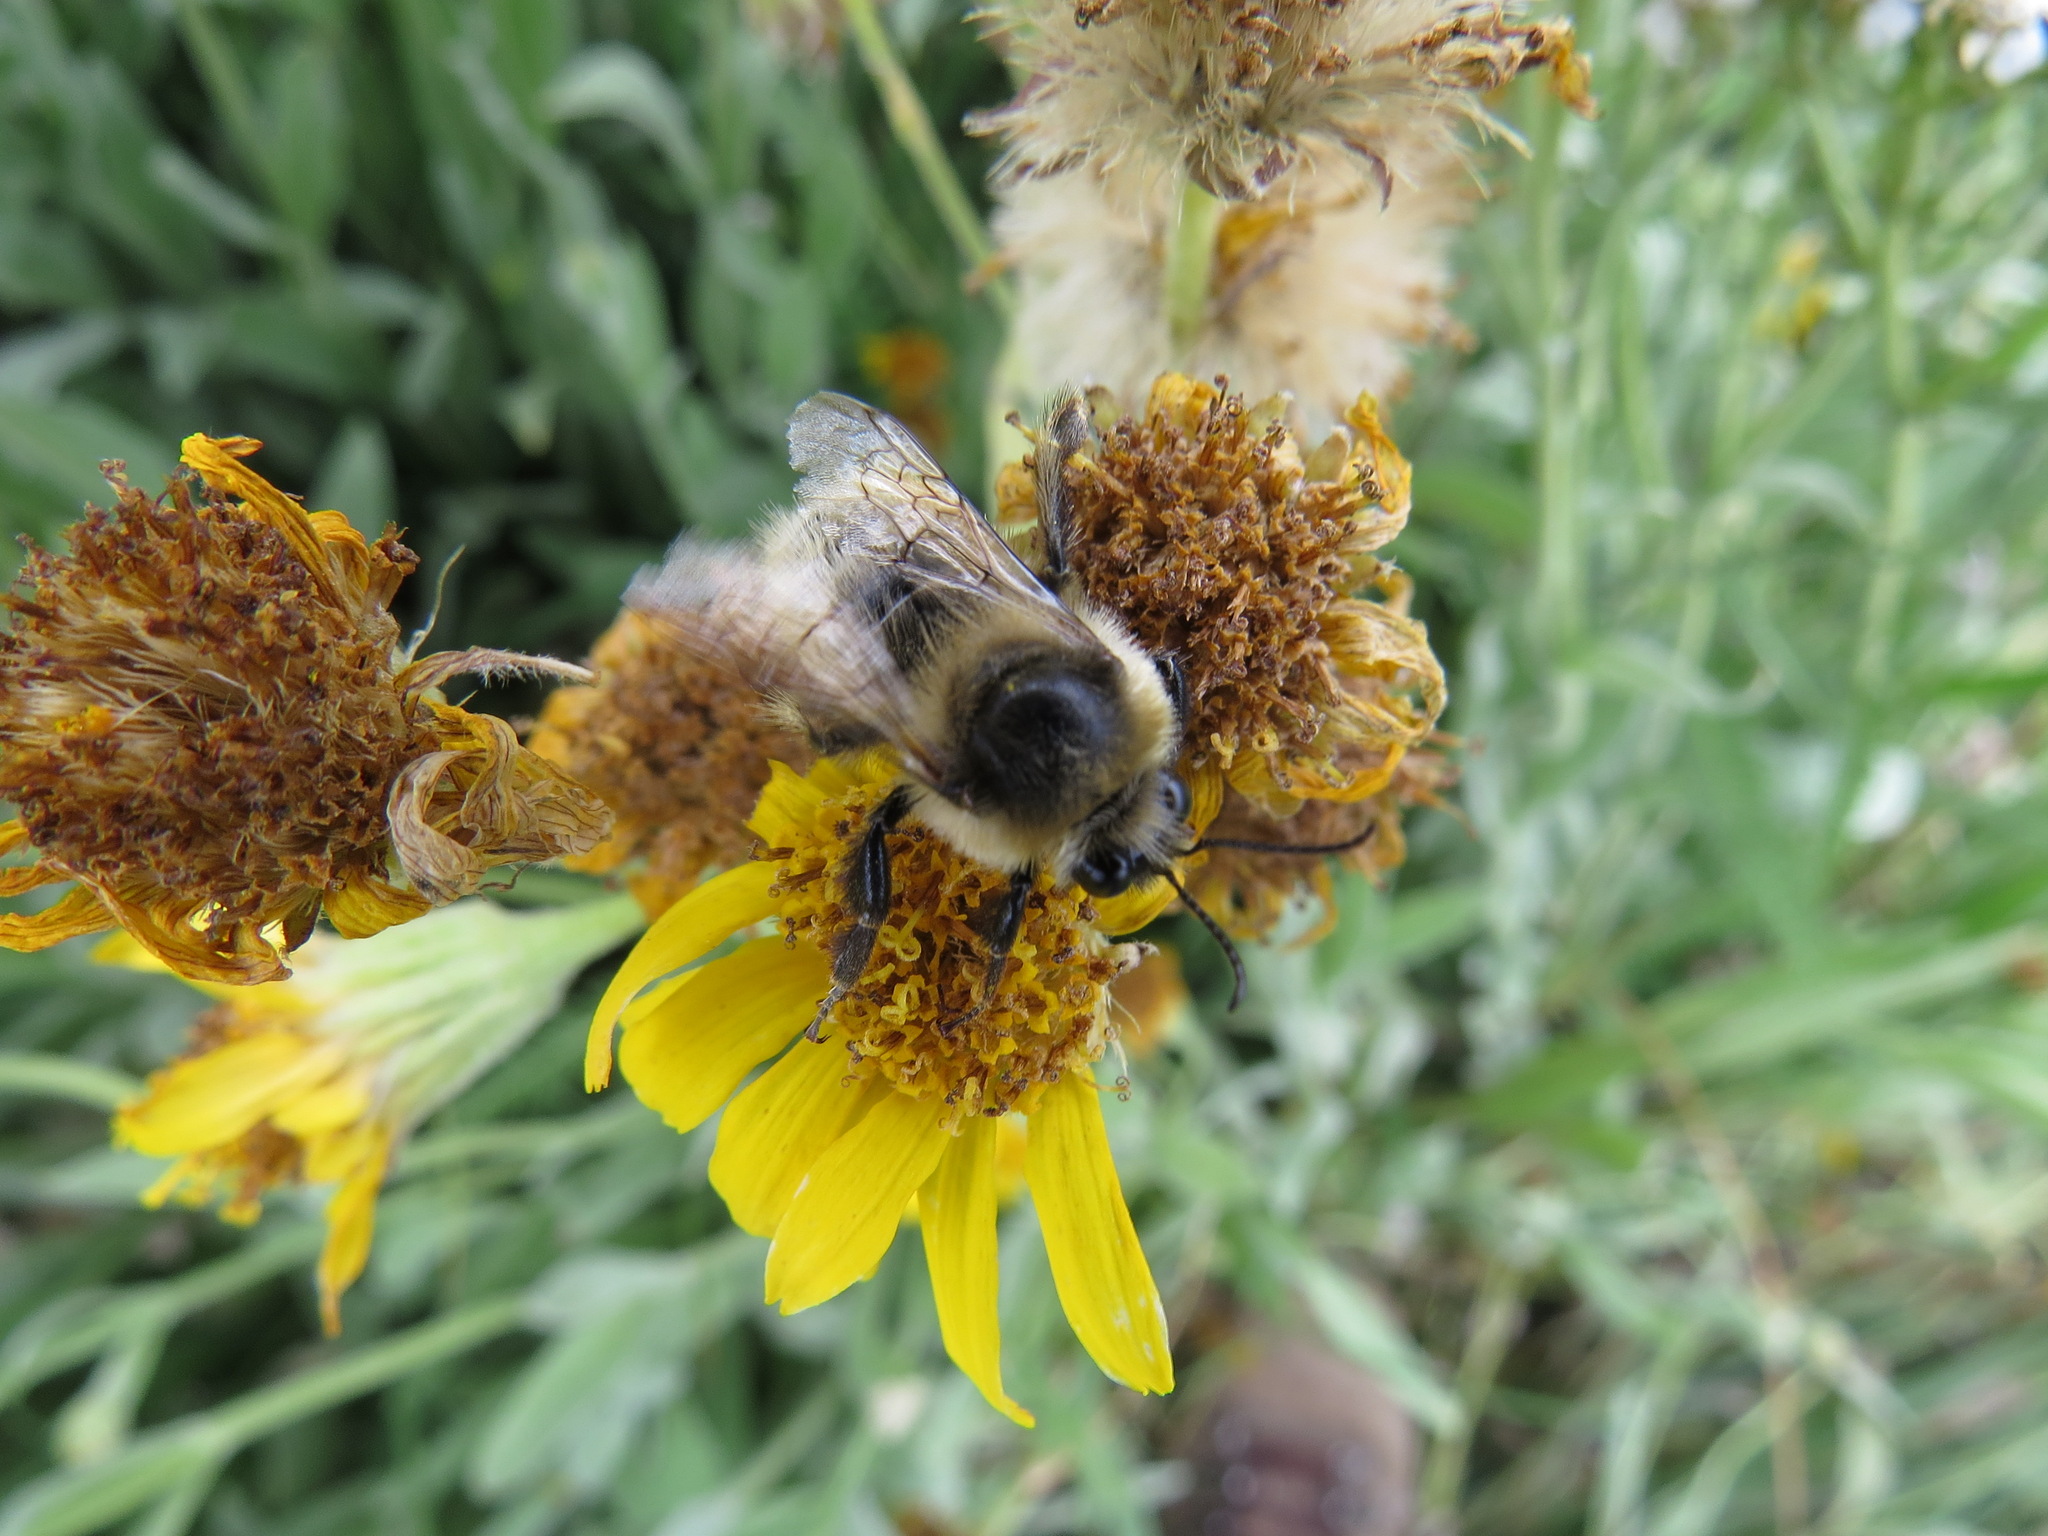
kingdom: Animalia
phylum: Arthropoda
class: Insecta
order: Hymenoptera
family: Apidae
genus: Bombus
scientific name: Bombus rufocinctus
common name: Red-belted bumble bee
